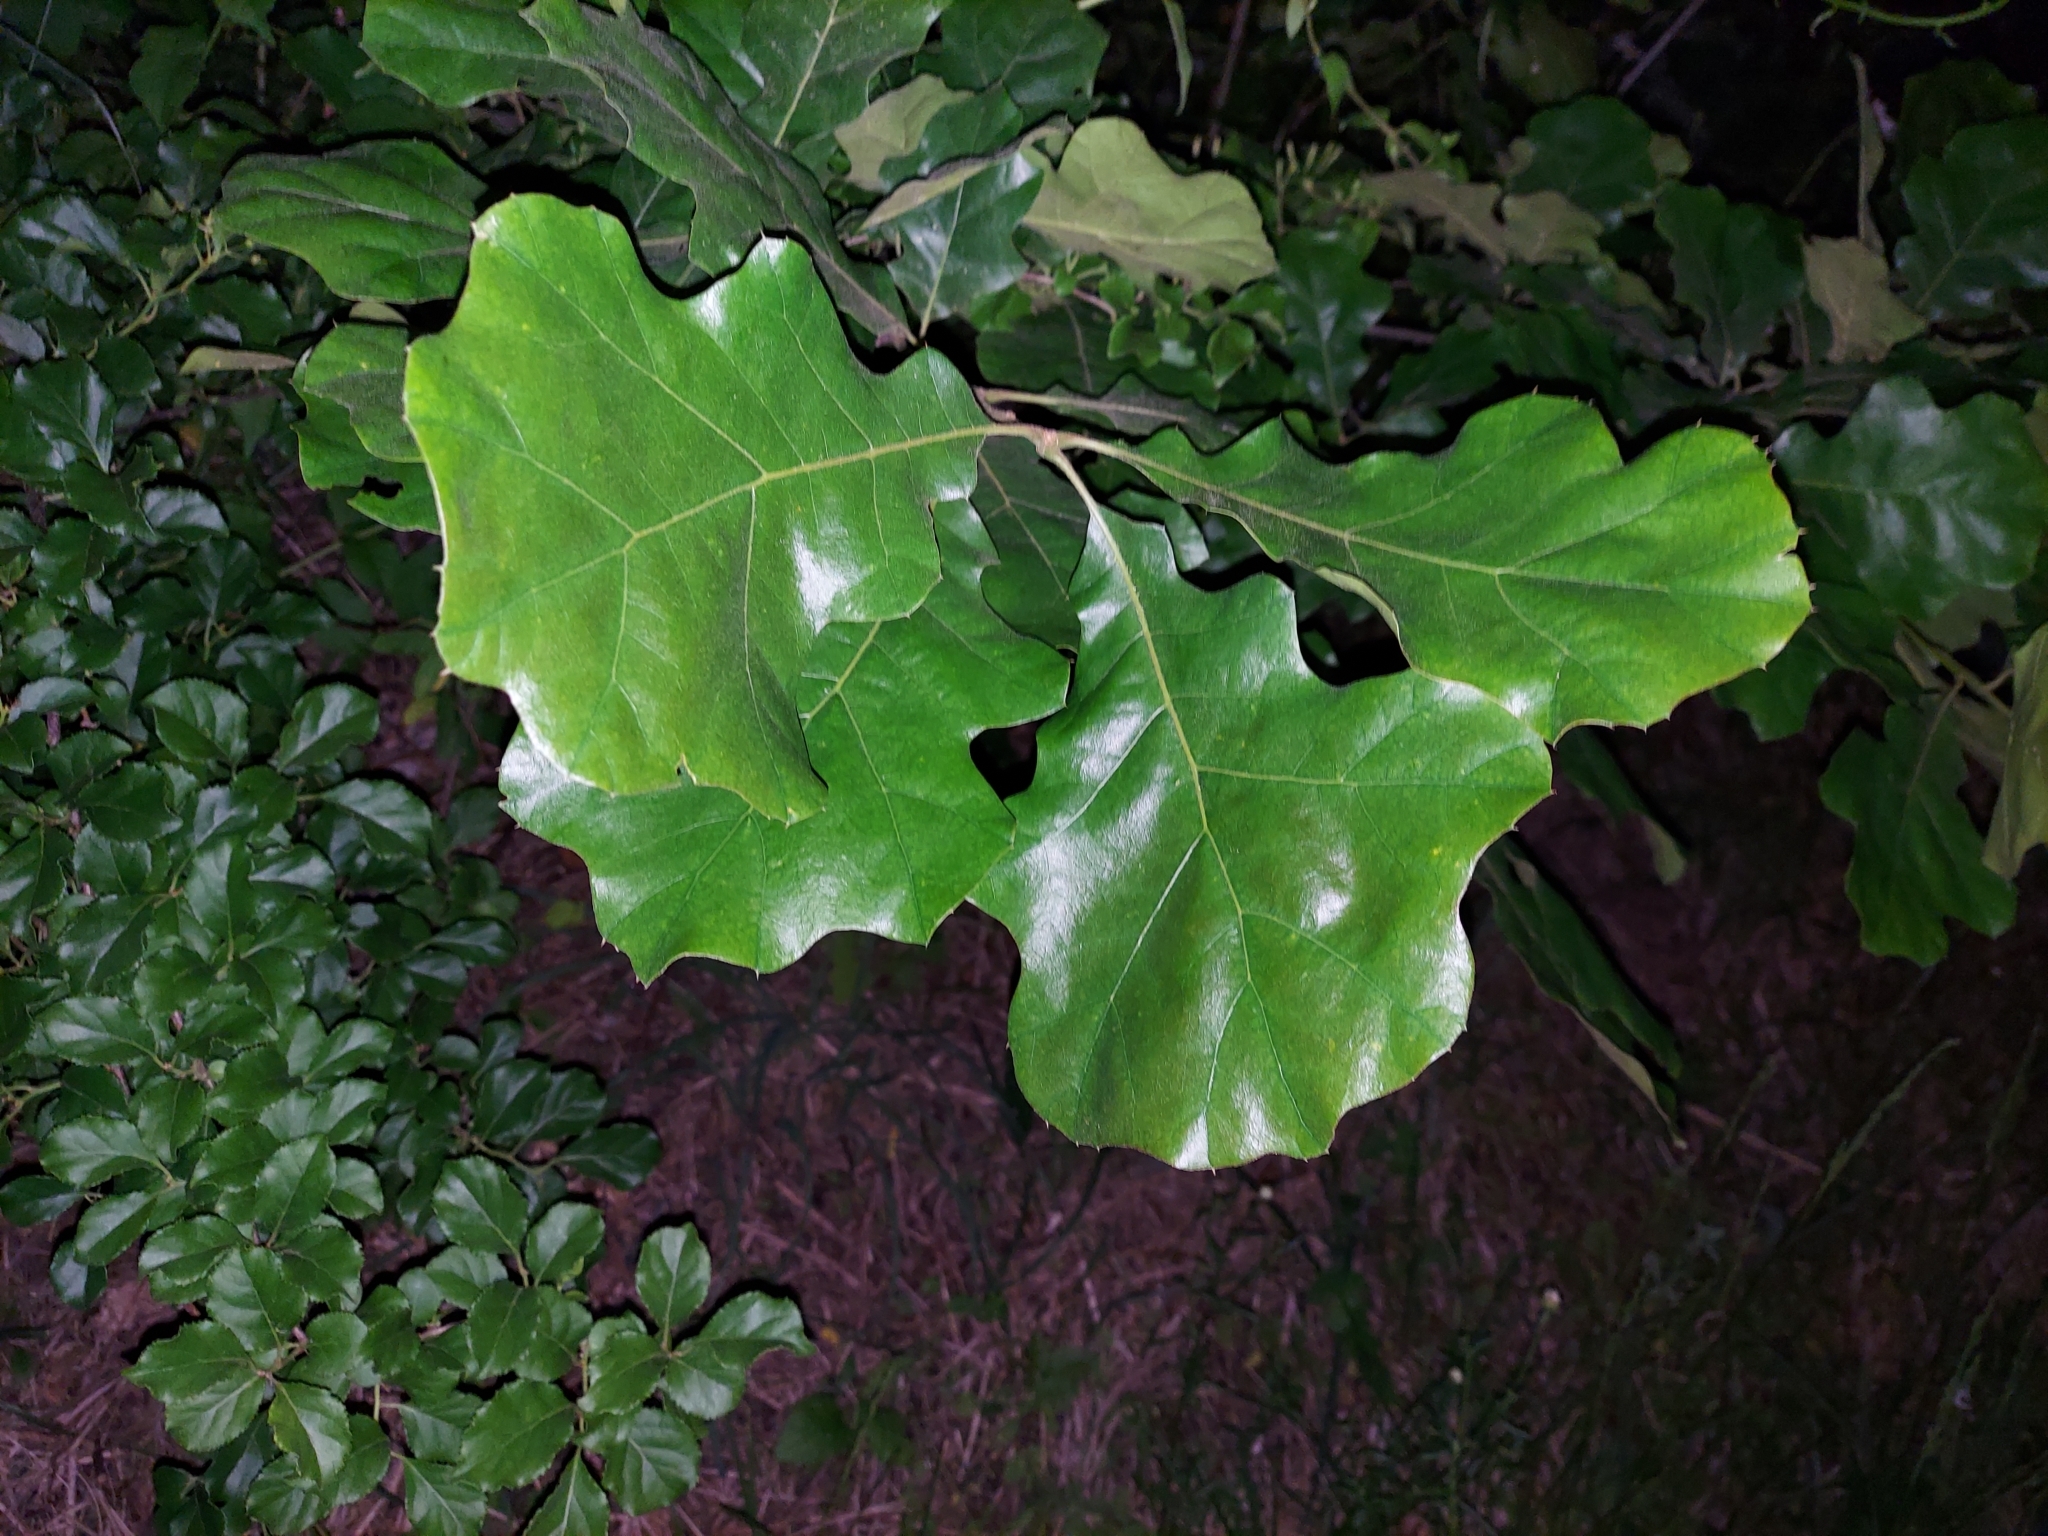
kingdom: Plantae
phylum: Tracheophyta
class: Magnoliopsida
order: Fagales
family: Fagaceae
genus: Quercus
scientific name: Quercus velutina
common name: Black oak
